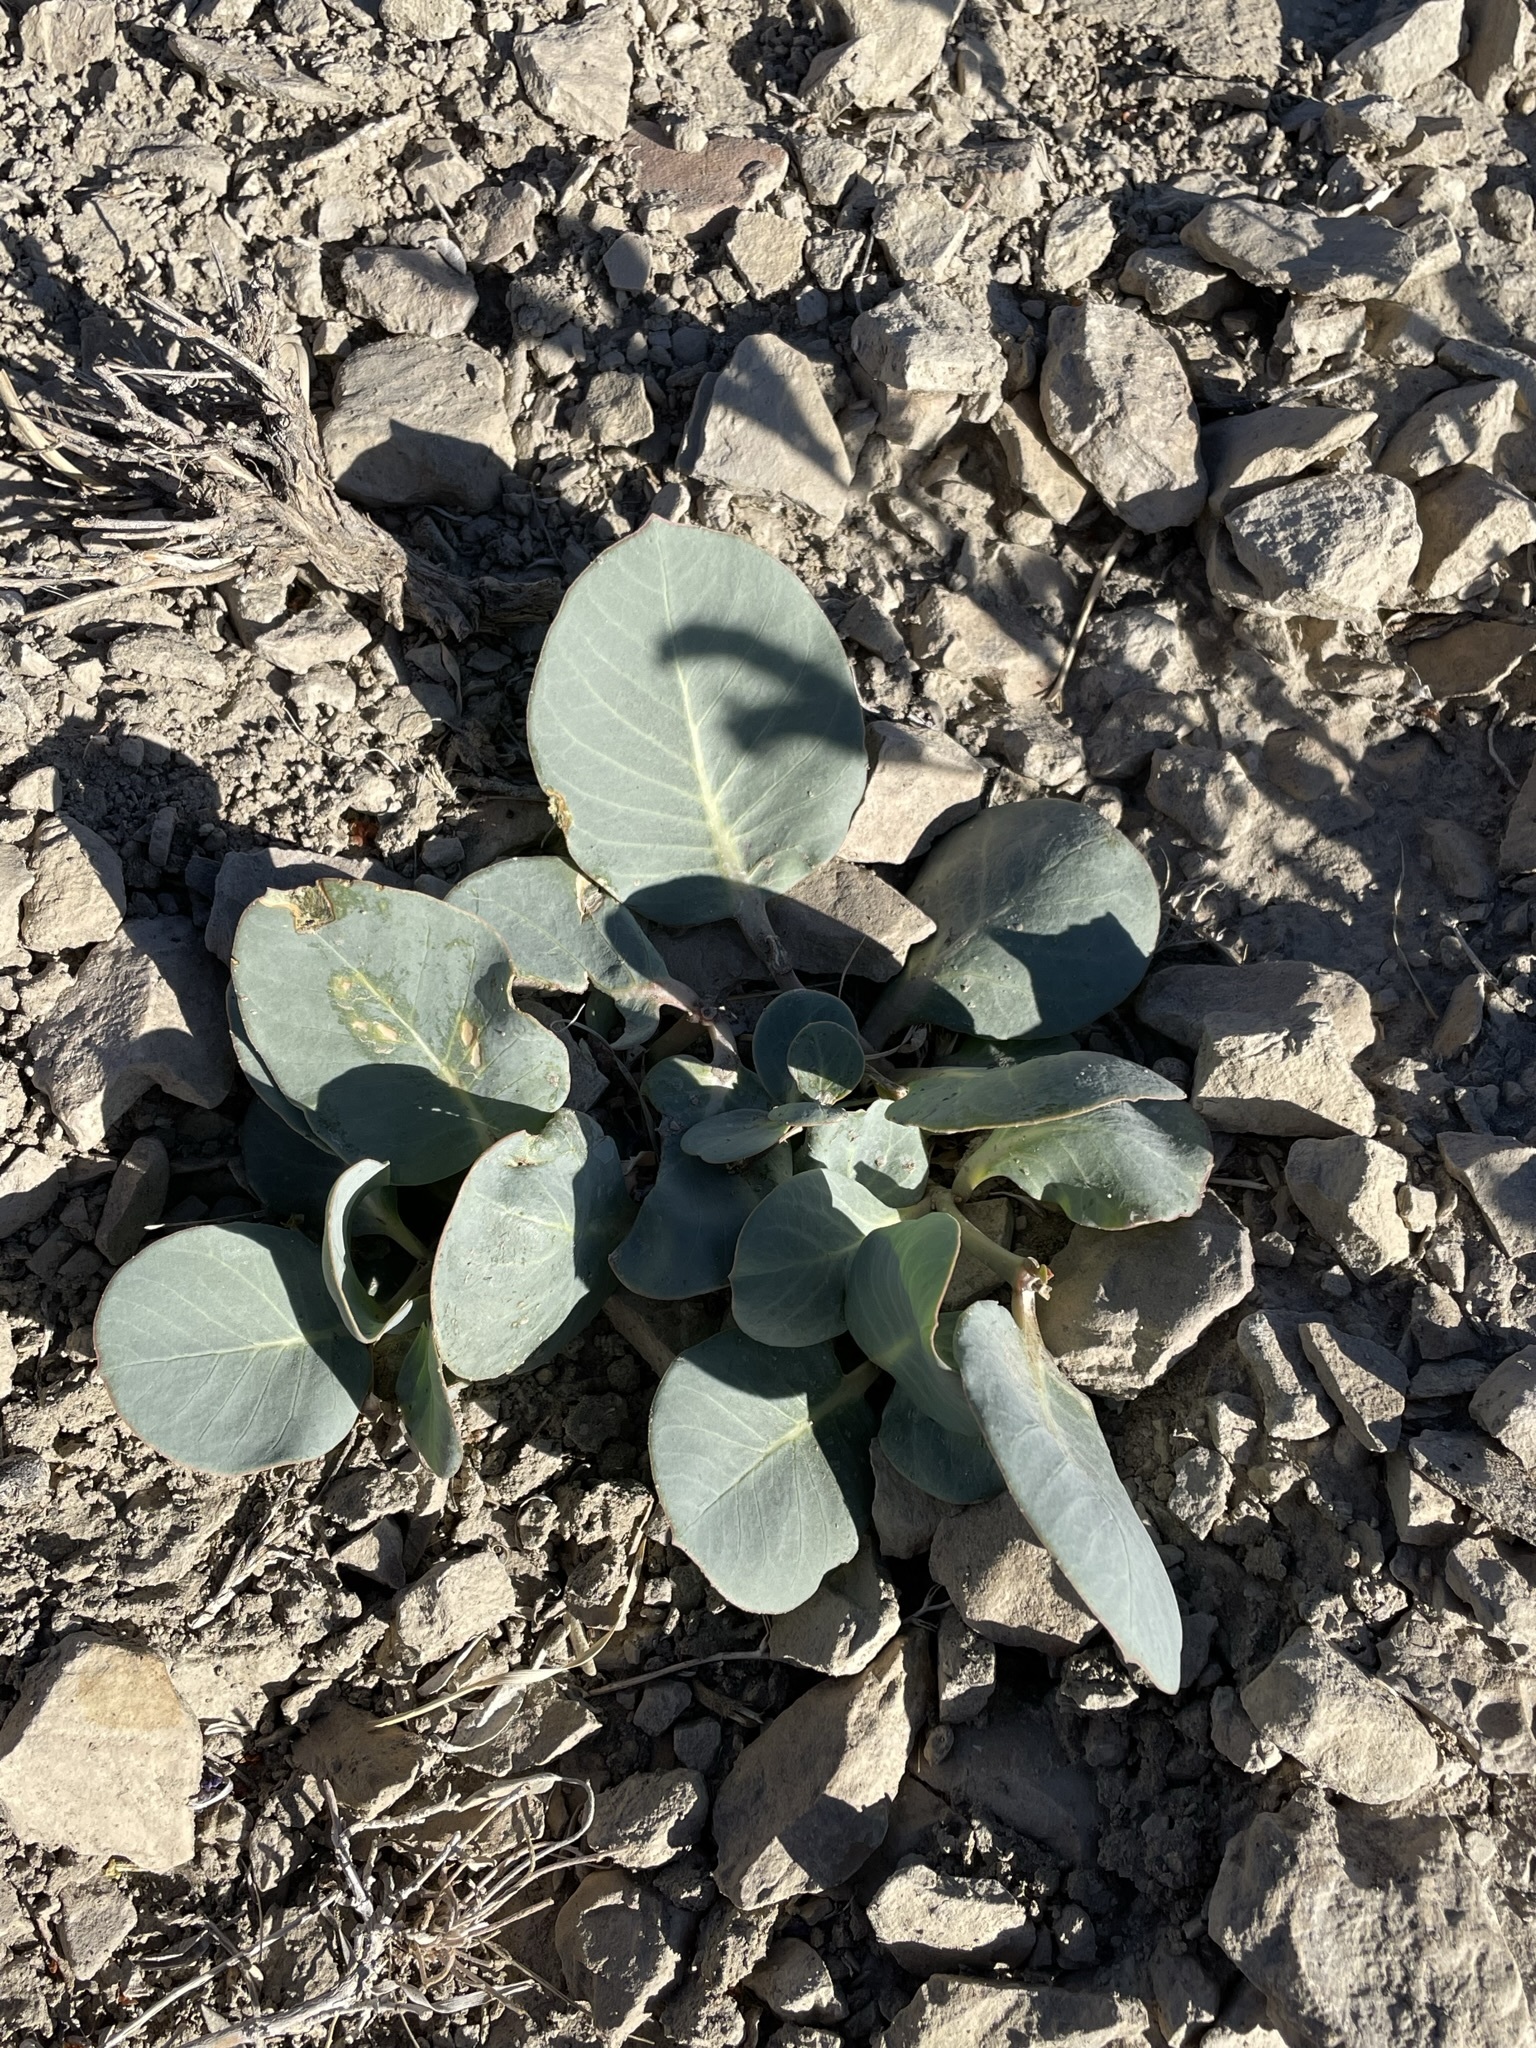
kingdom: Plantae
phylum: Tracheophyta
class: Magnoliopsida
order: Gentianales
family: Apocynaceae
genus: Asclepias
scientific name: Asclepias cryptoceras
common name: Humboldt mountains milkweed
